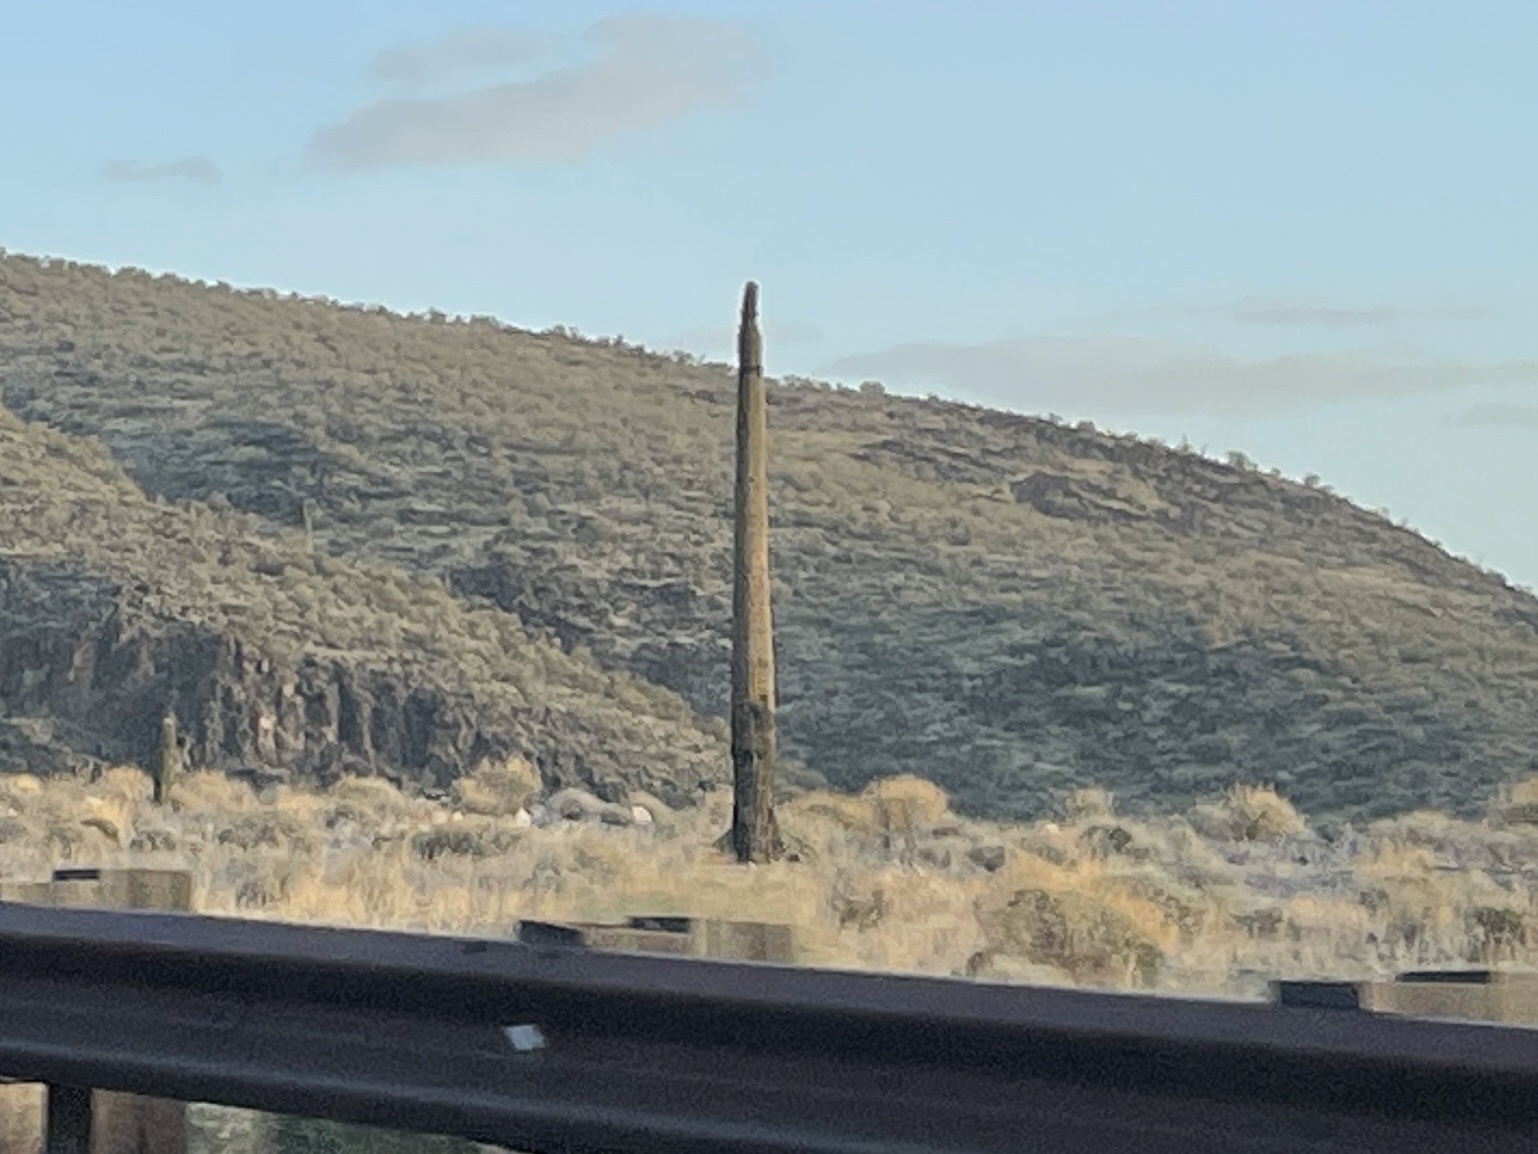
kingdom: Plantae
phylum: Tracheophyta
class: Magnoliopsida
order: Caryophyllales
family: Cactaceae
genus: Carnegiea
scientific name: Carnegiea gigantea
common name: Saguaro
